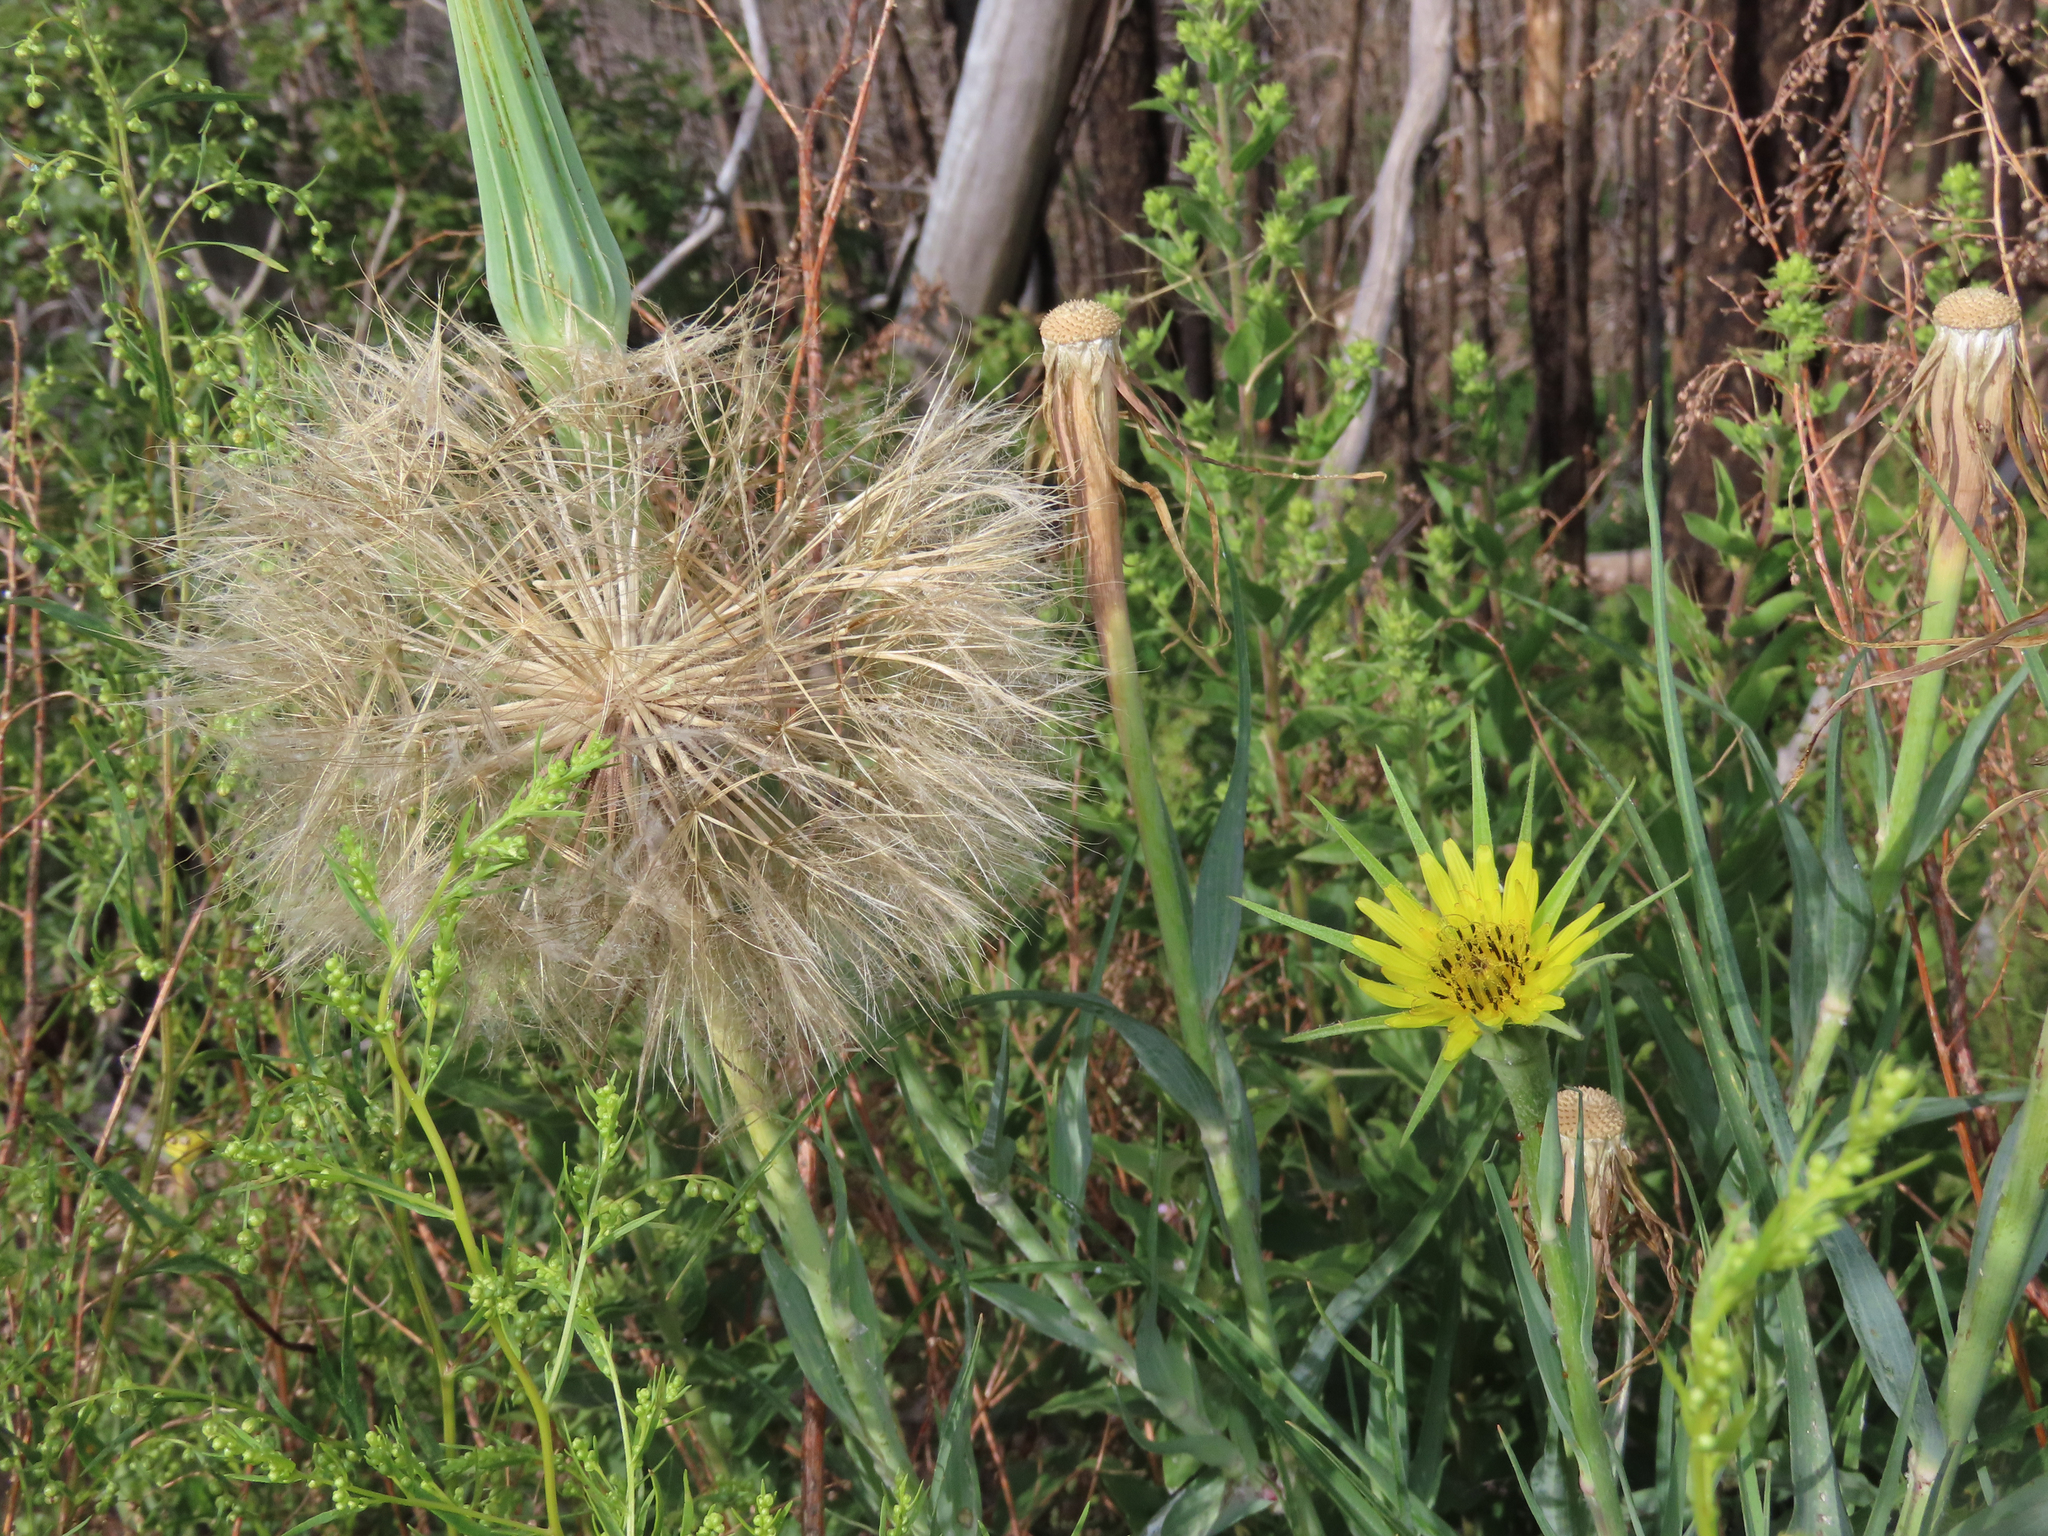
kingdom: Plantae
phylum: Tracheophyta
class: Magnoliopsida
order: Asterales
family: Asteraceae
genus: Tragopogon
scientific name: Tragopogon dubius
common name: Yellow salsify
